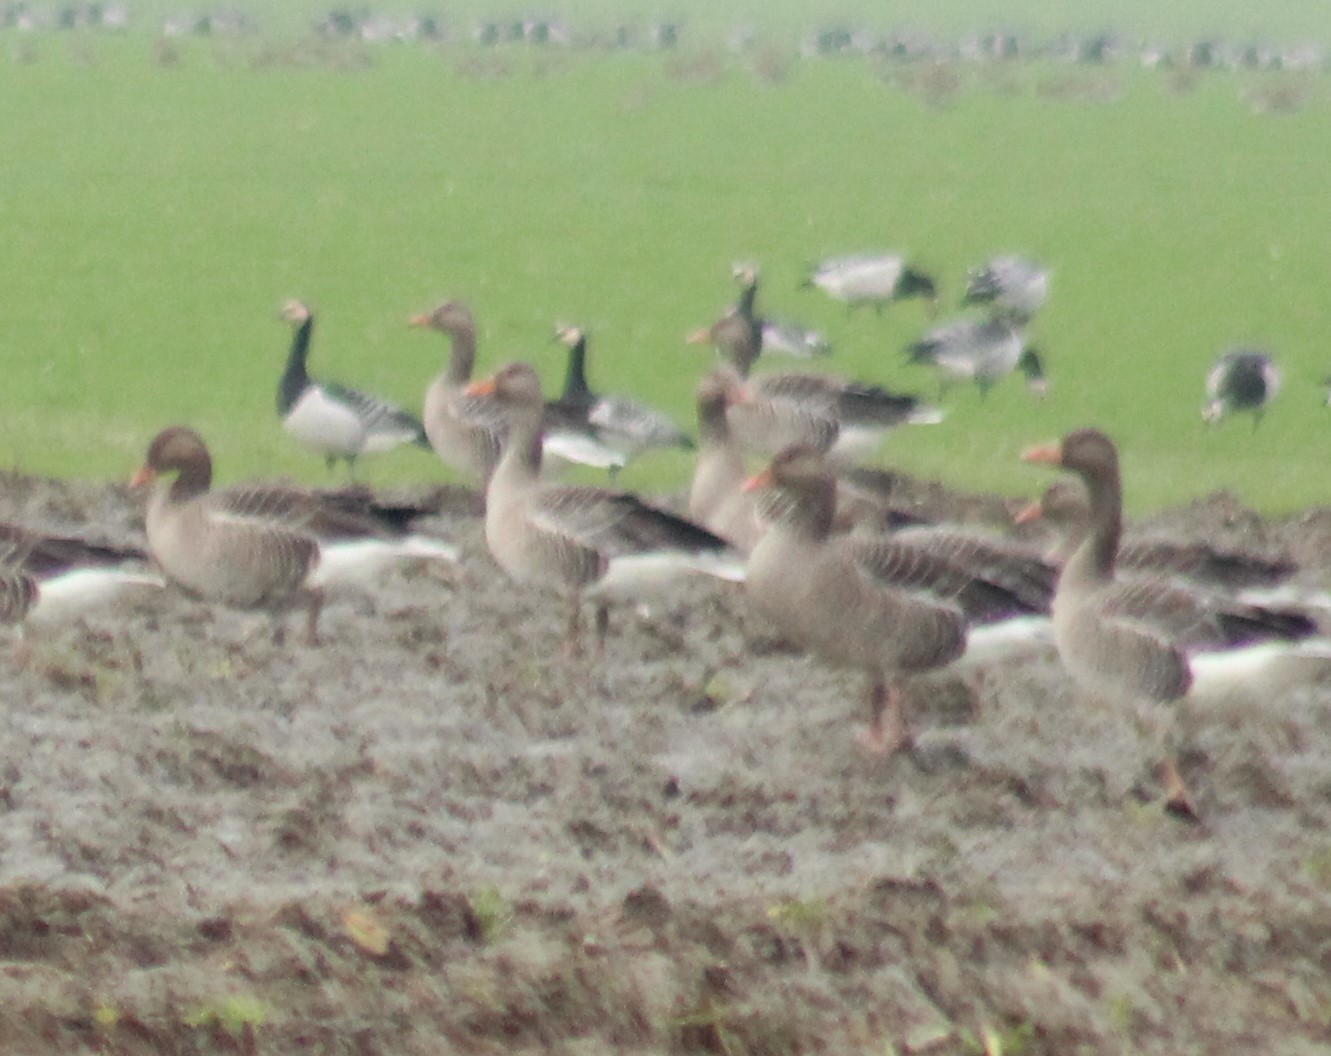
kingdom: Animalia
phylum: Chordata
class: Aves
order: Anseriformes
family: Anatidae
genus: Anser
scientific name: Anser anser
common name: Greylag goose
